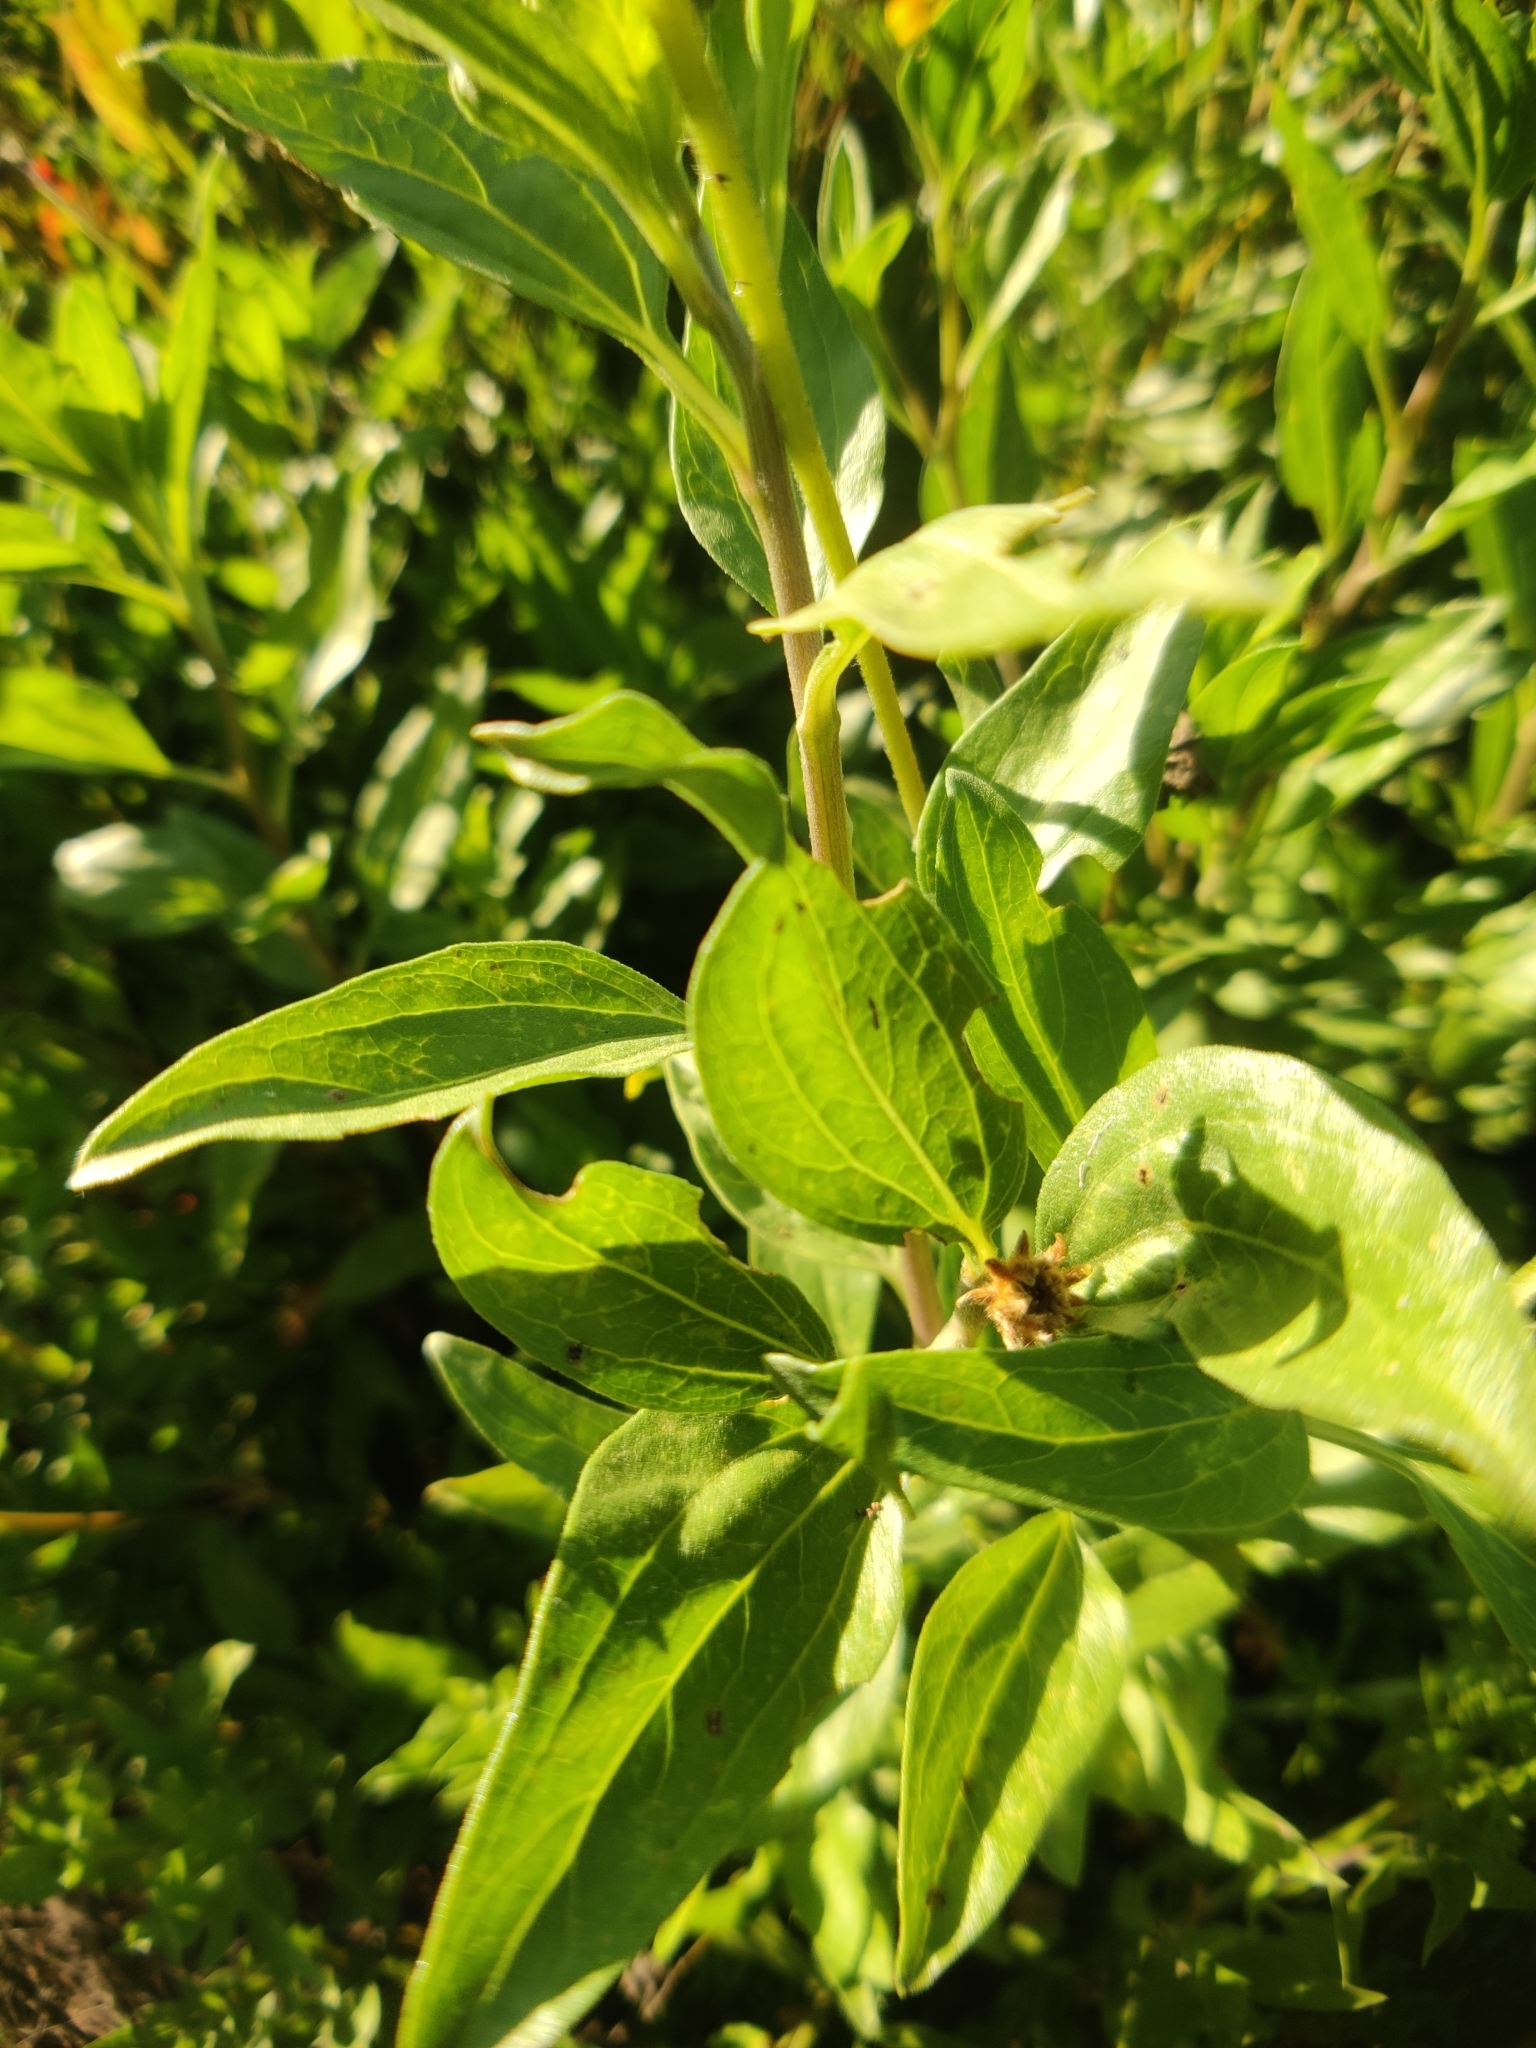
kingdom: Plantae
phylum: Tracheophyta
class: Magnoliopsida
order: Asterales
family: Asteraceae
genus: Encelia
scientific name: Encelia californica
